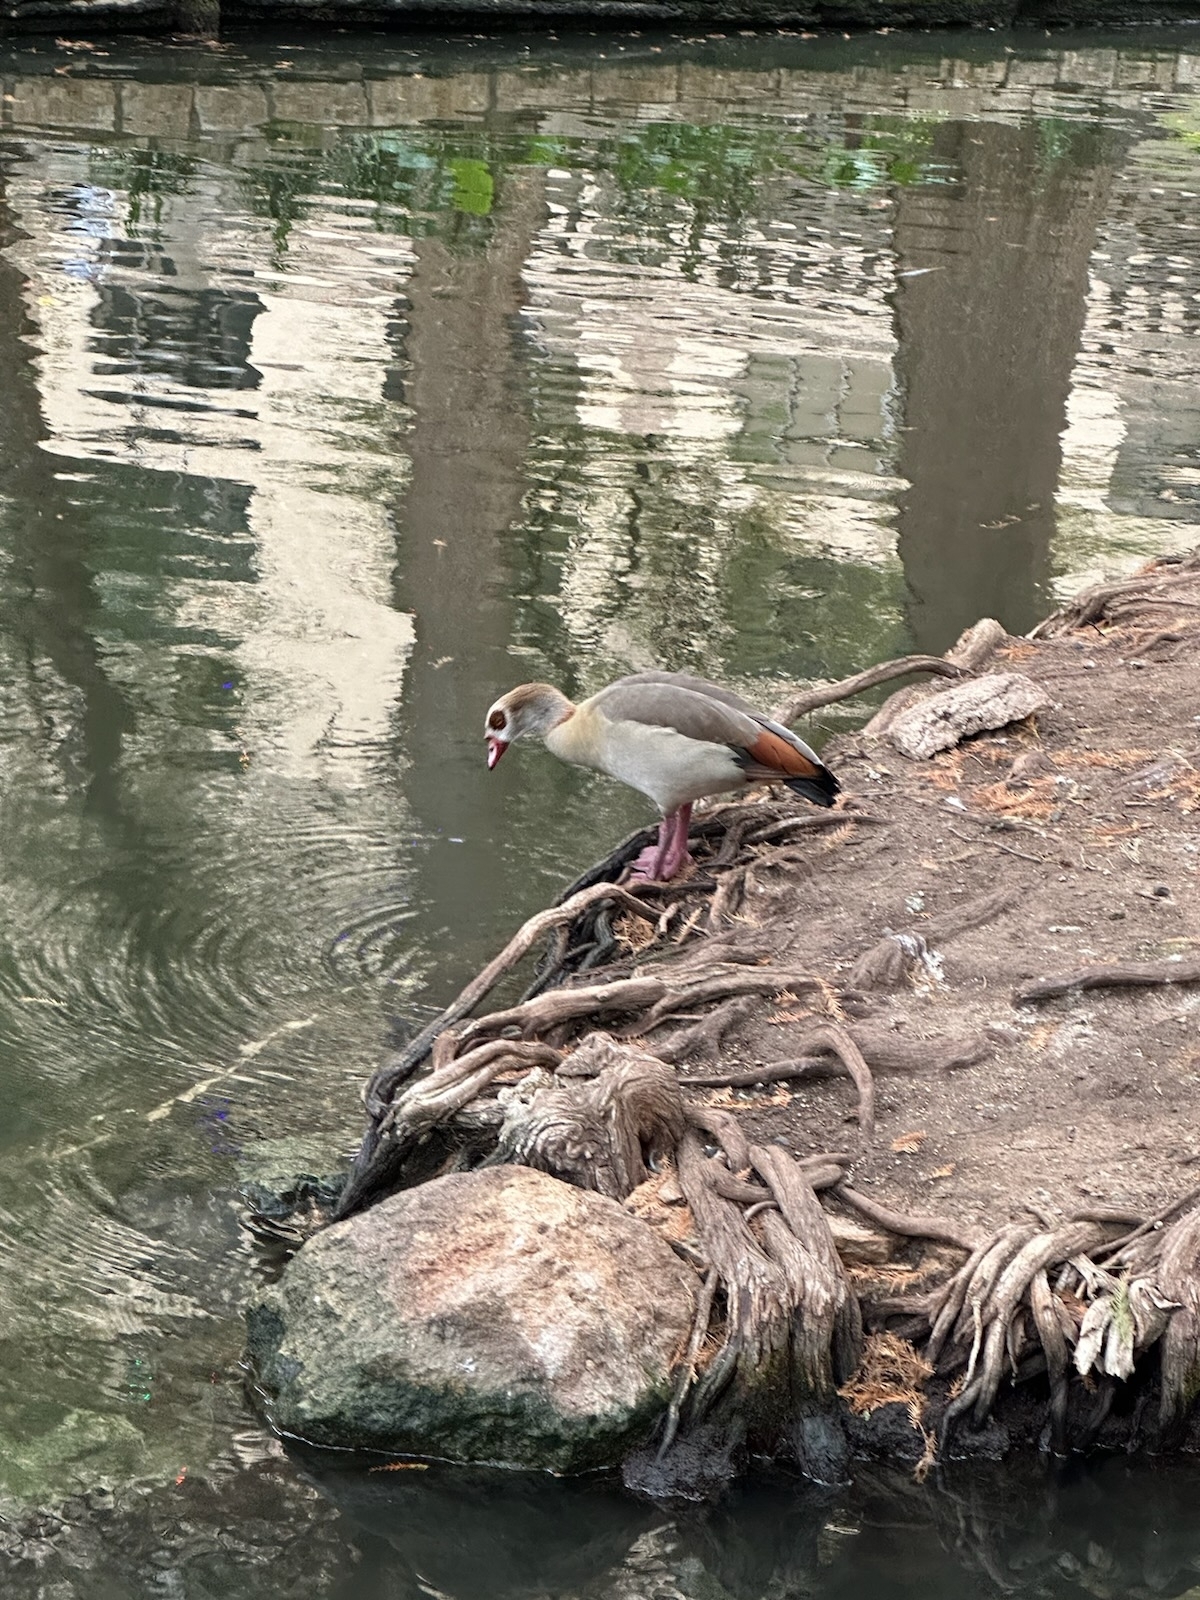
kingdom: Animalia
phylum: Chordata
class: Aves
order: Anseriformes
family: Anatidae
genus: Alopochen
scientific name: Alopochen aegyptiaca
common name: Egyptian goose
